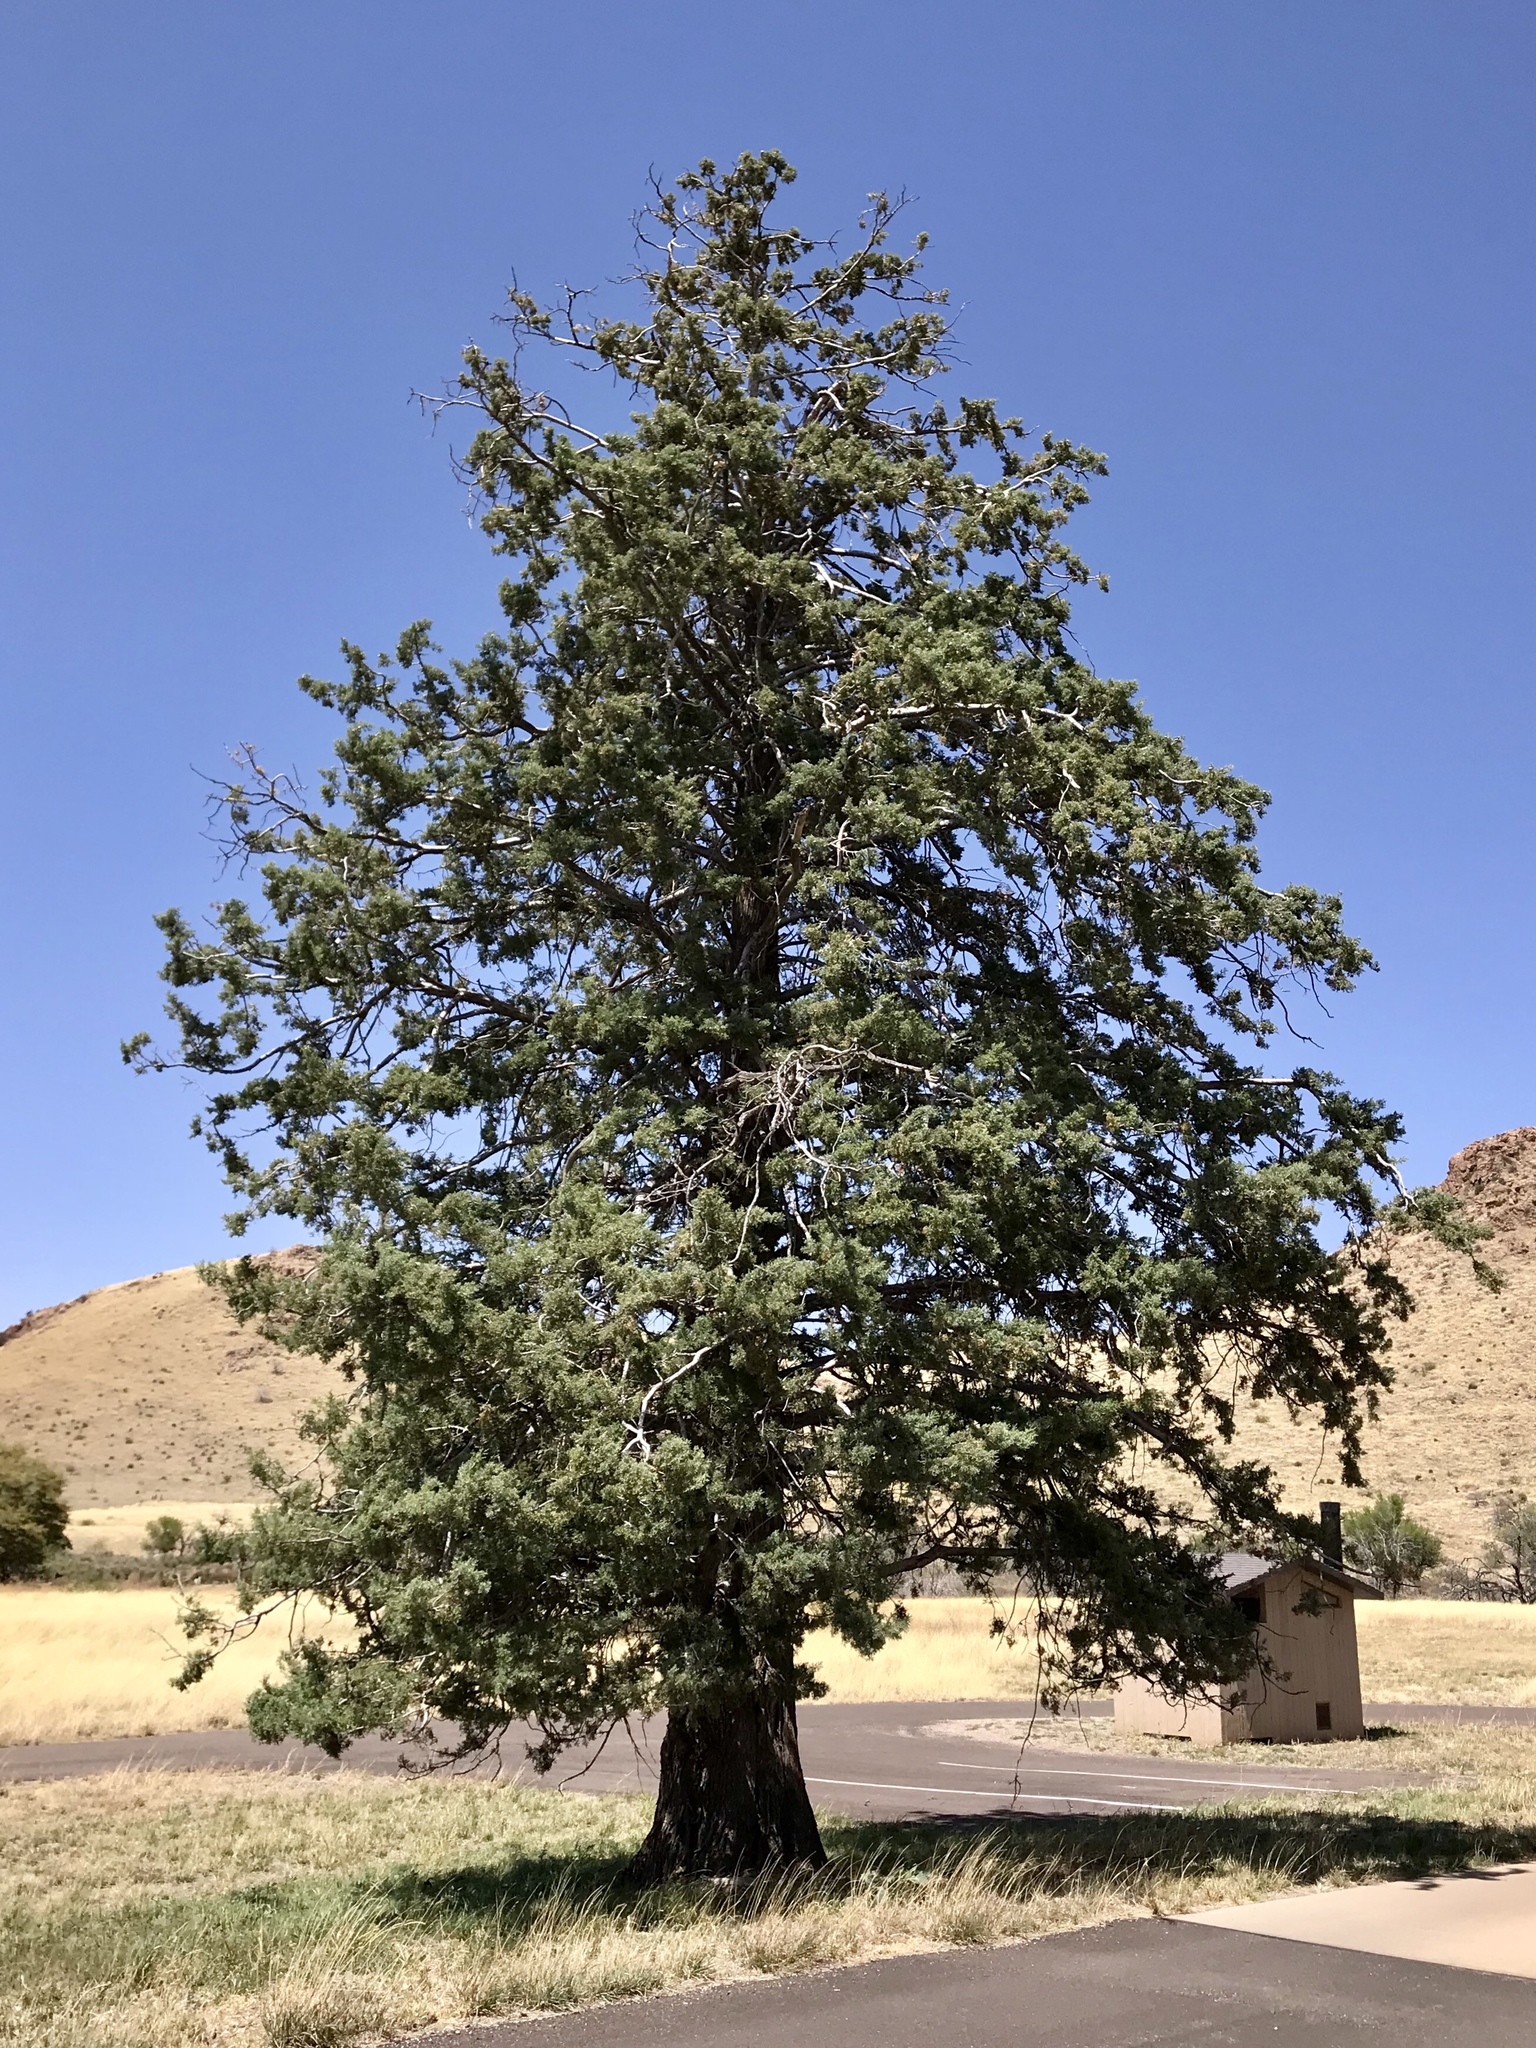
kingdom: Plantae
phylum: Tracheophyta
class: Pinopsida
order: Pinales
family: Cupressaceae
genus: Cupressus
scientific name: Cupressus arizonica
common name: Arizona cypress
